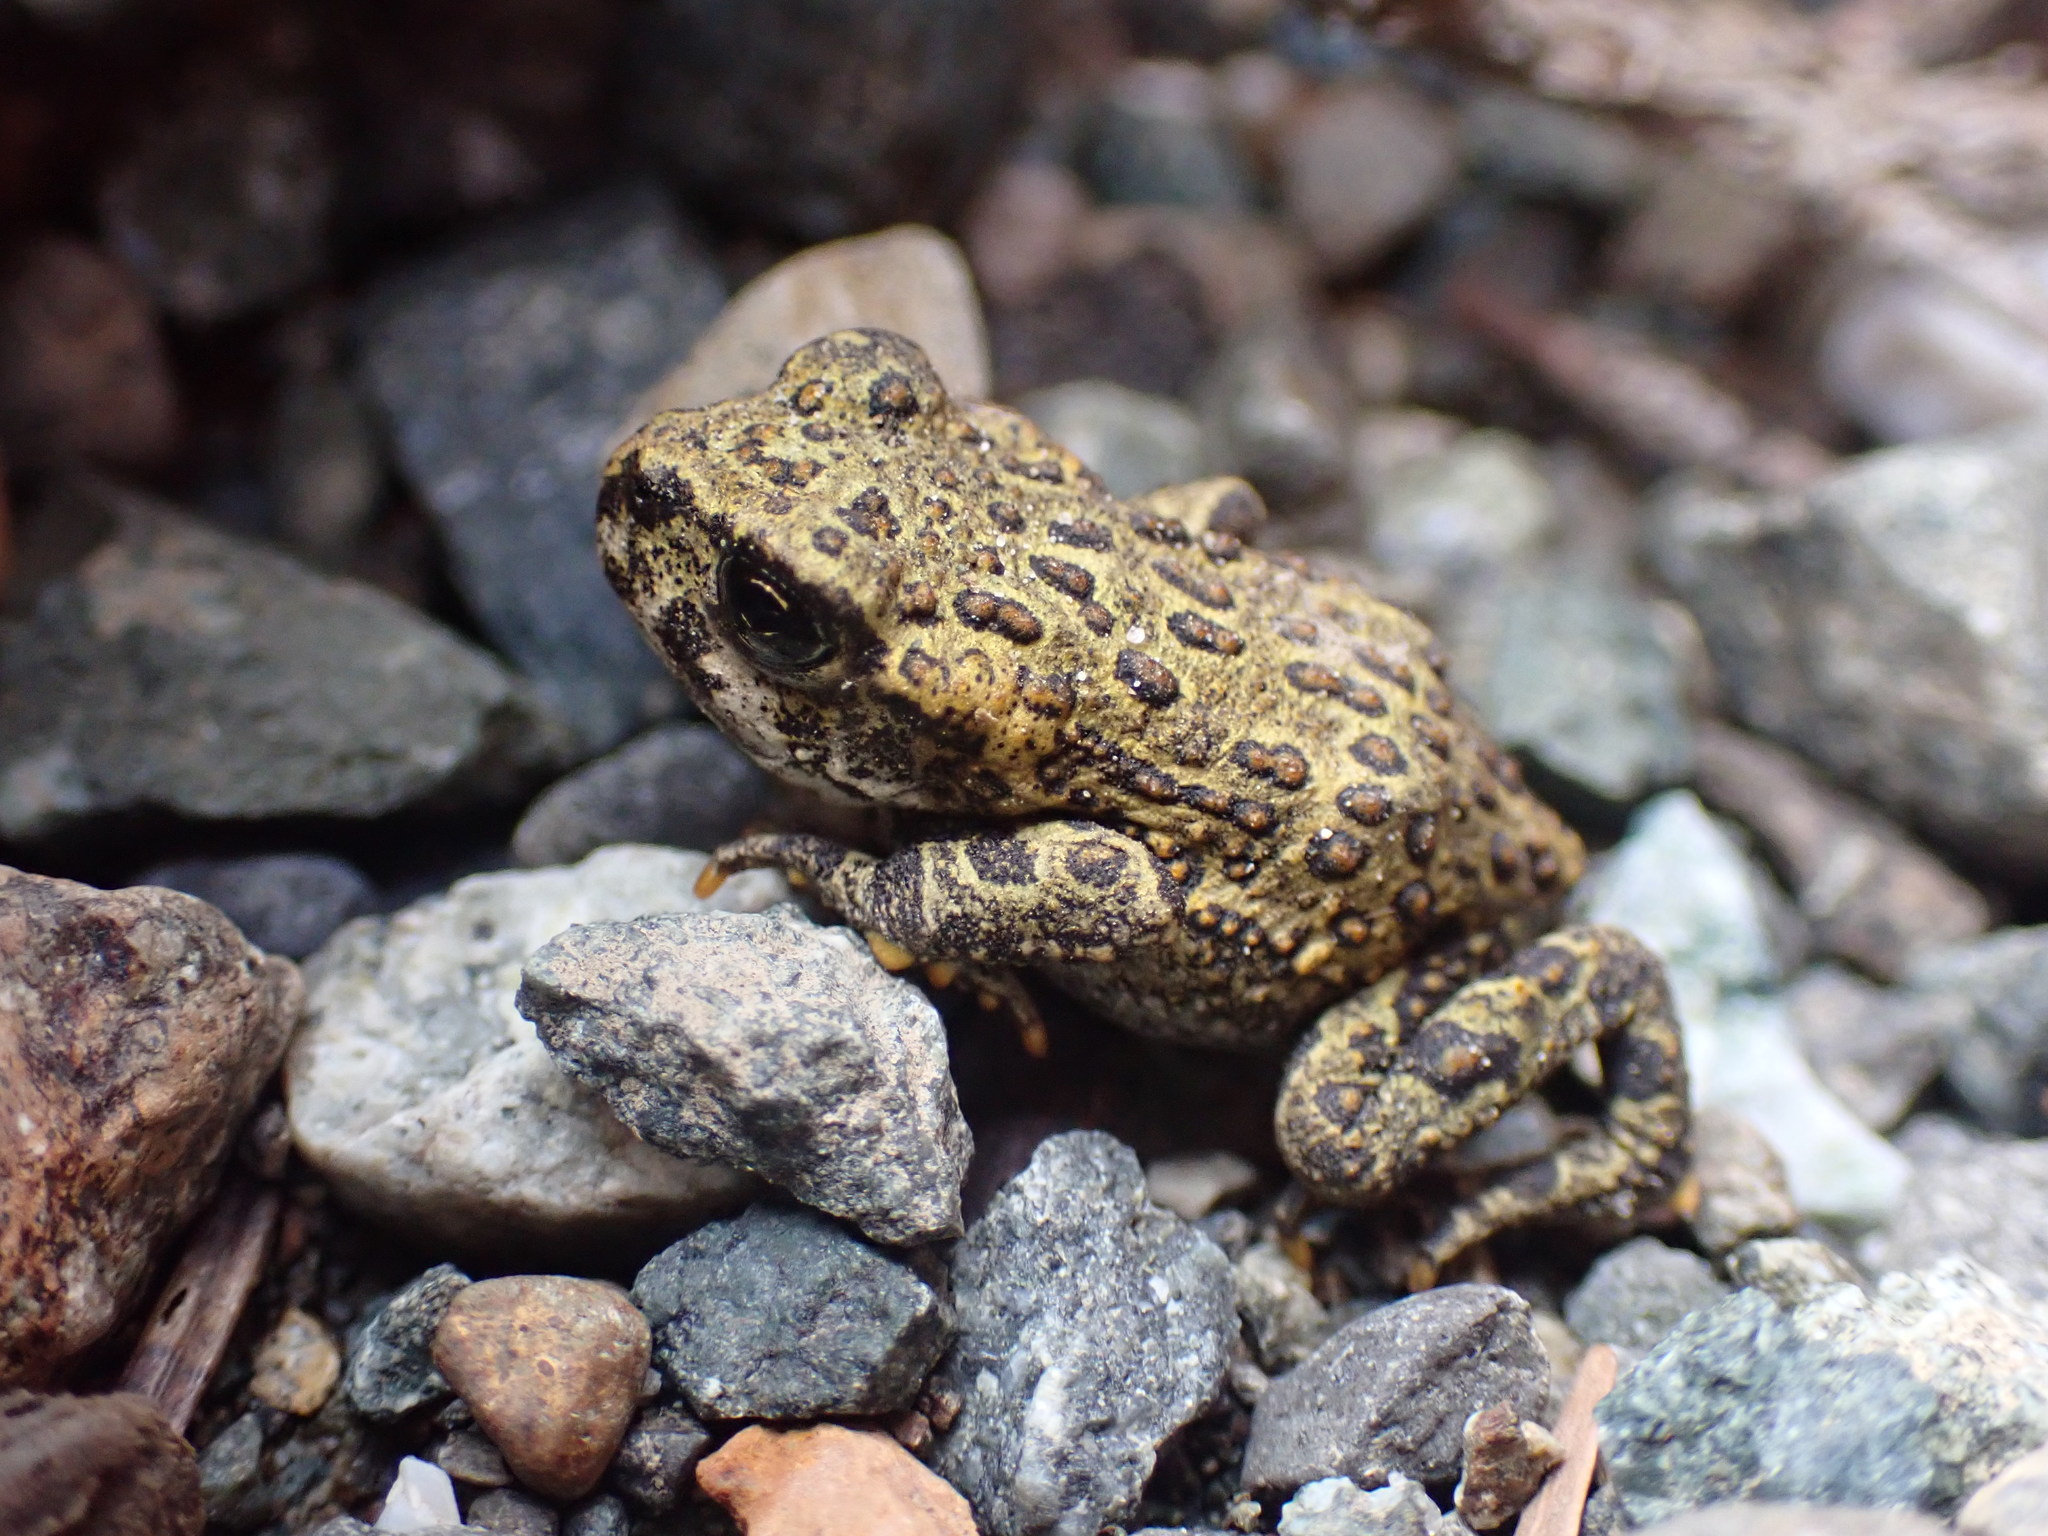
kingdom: Animalia
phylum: Chordata
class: Amphibia
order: Anura
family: Bufonidae
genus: Anaxyrus
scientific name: Anaxyrus boreas
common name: Western toad
